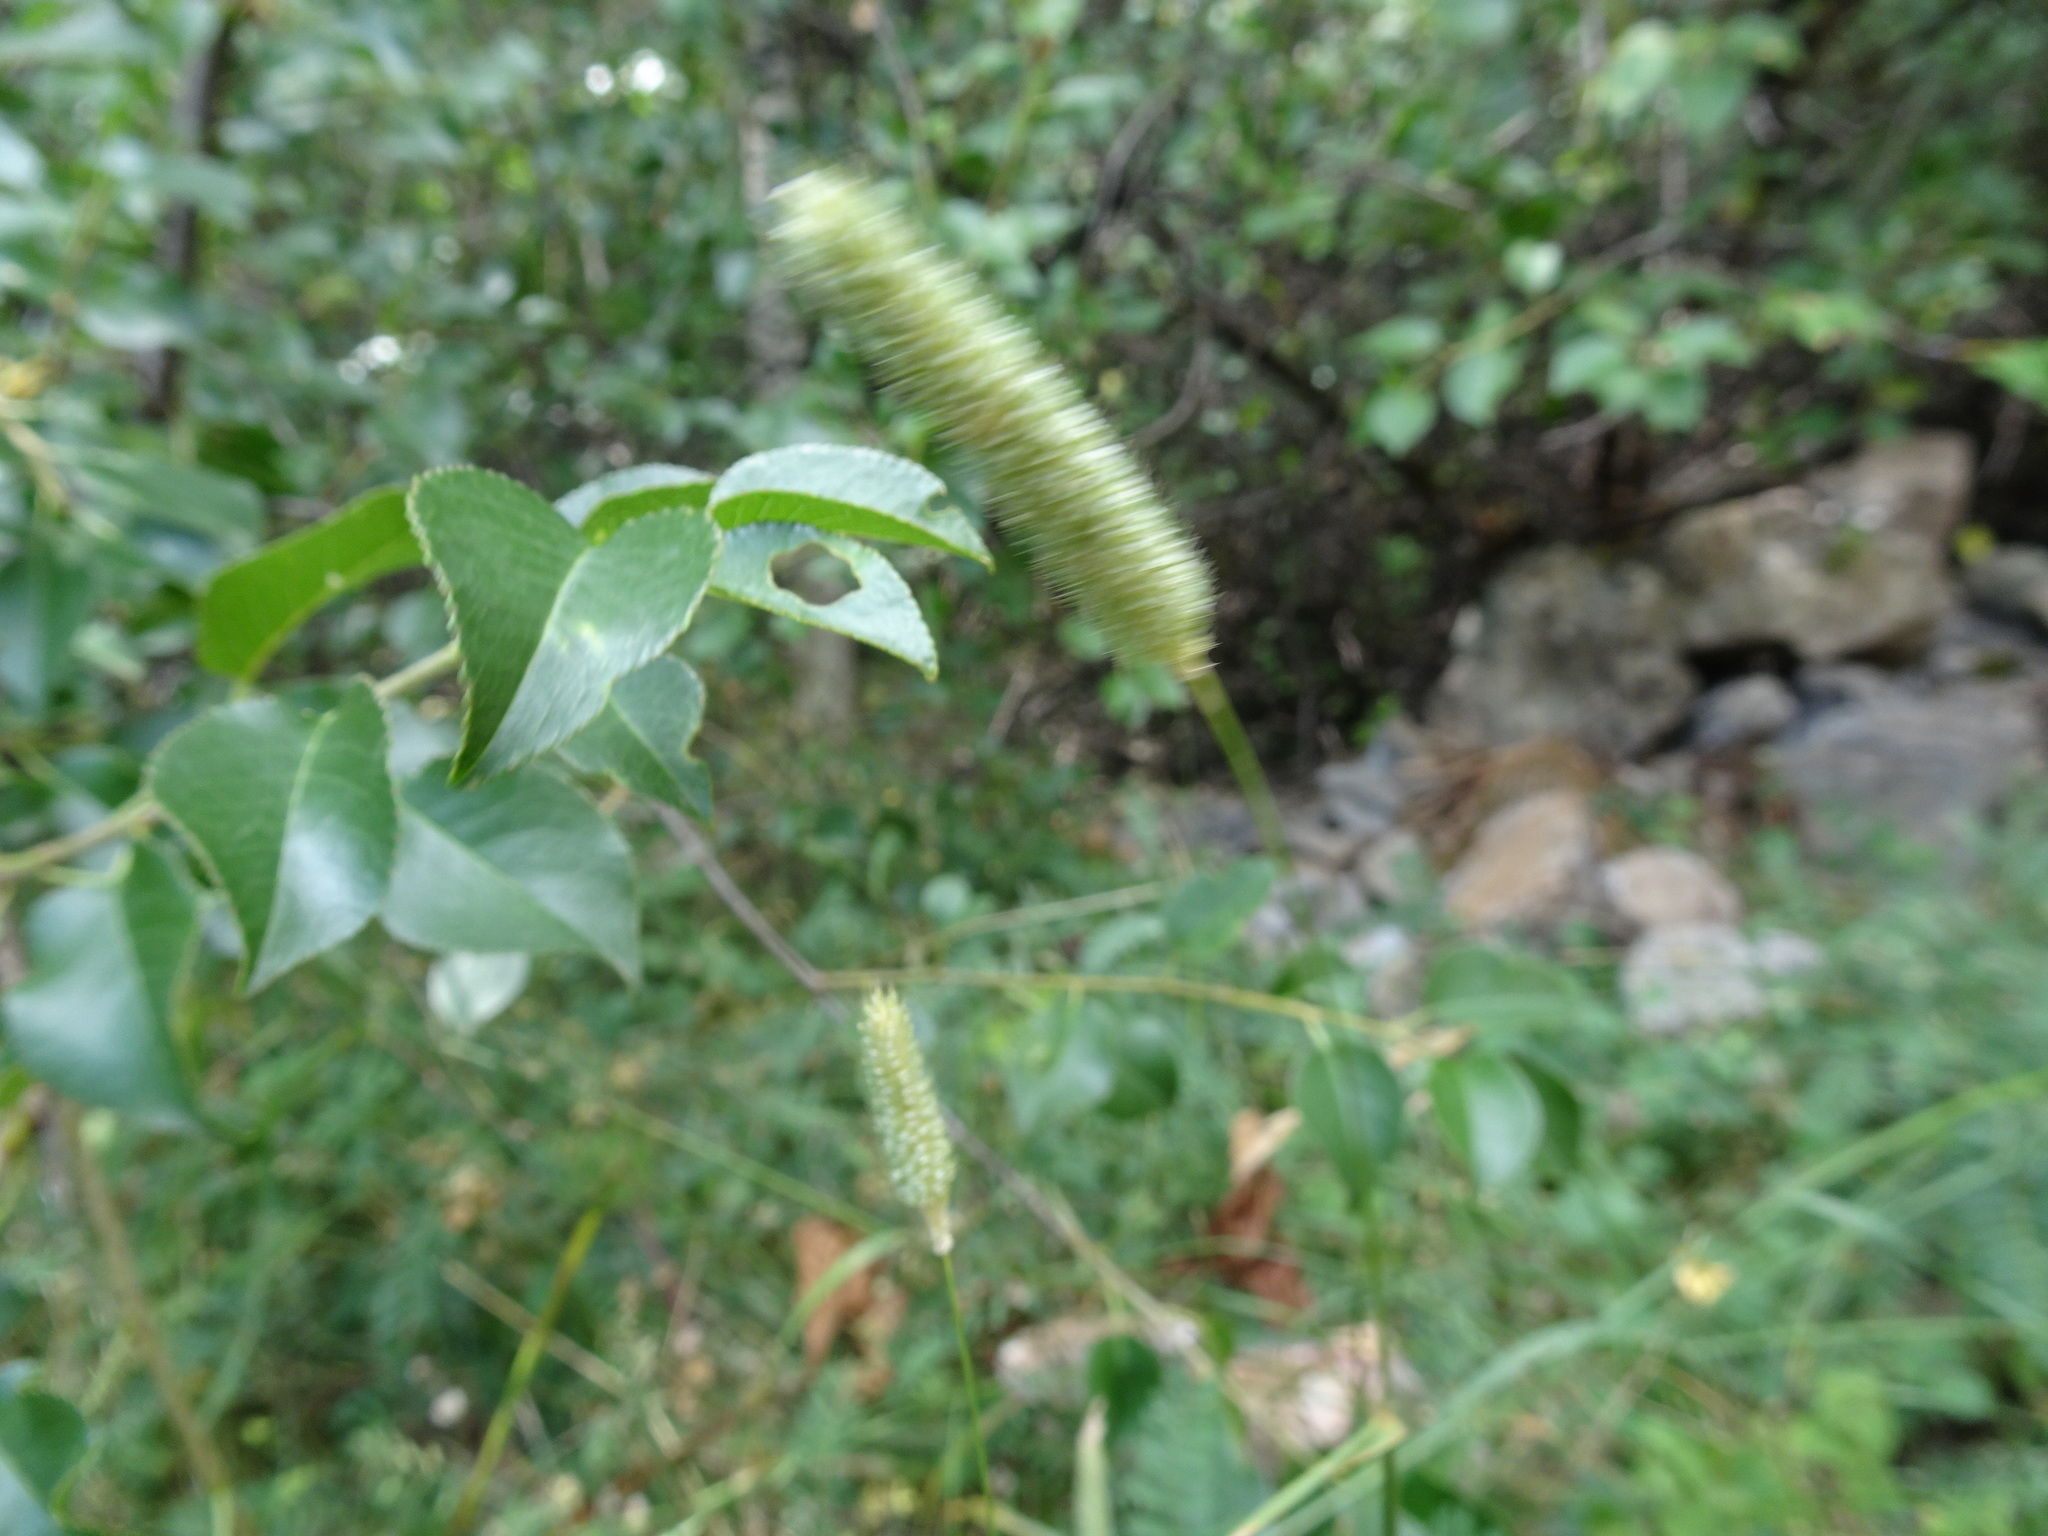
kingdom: Plantae
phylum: Tracheophyta
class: Liliopsida
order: Poales
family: Poaceae
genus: Phleum
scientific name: Phleum pratense
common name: Timothy grass
